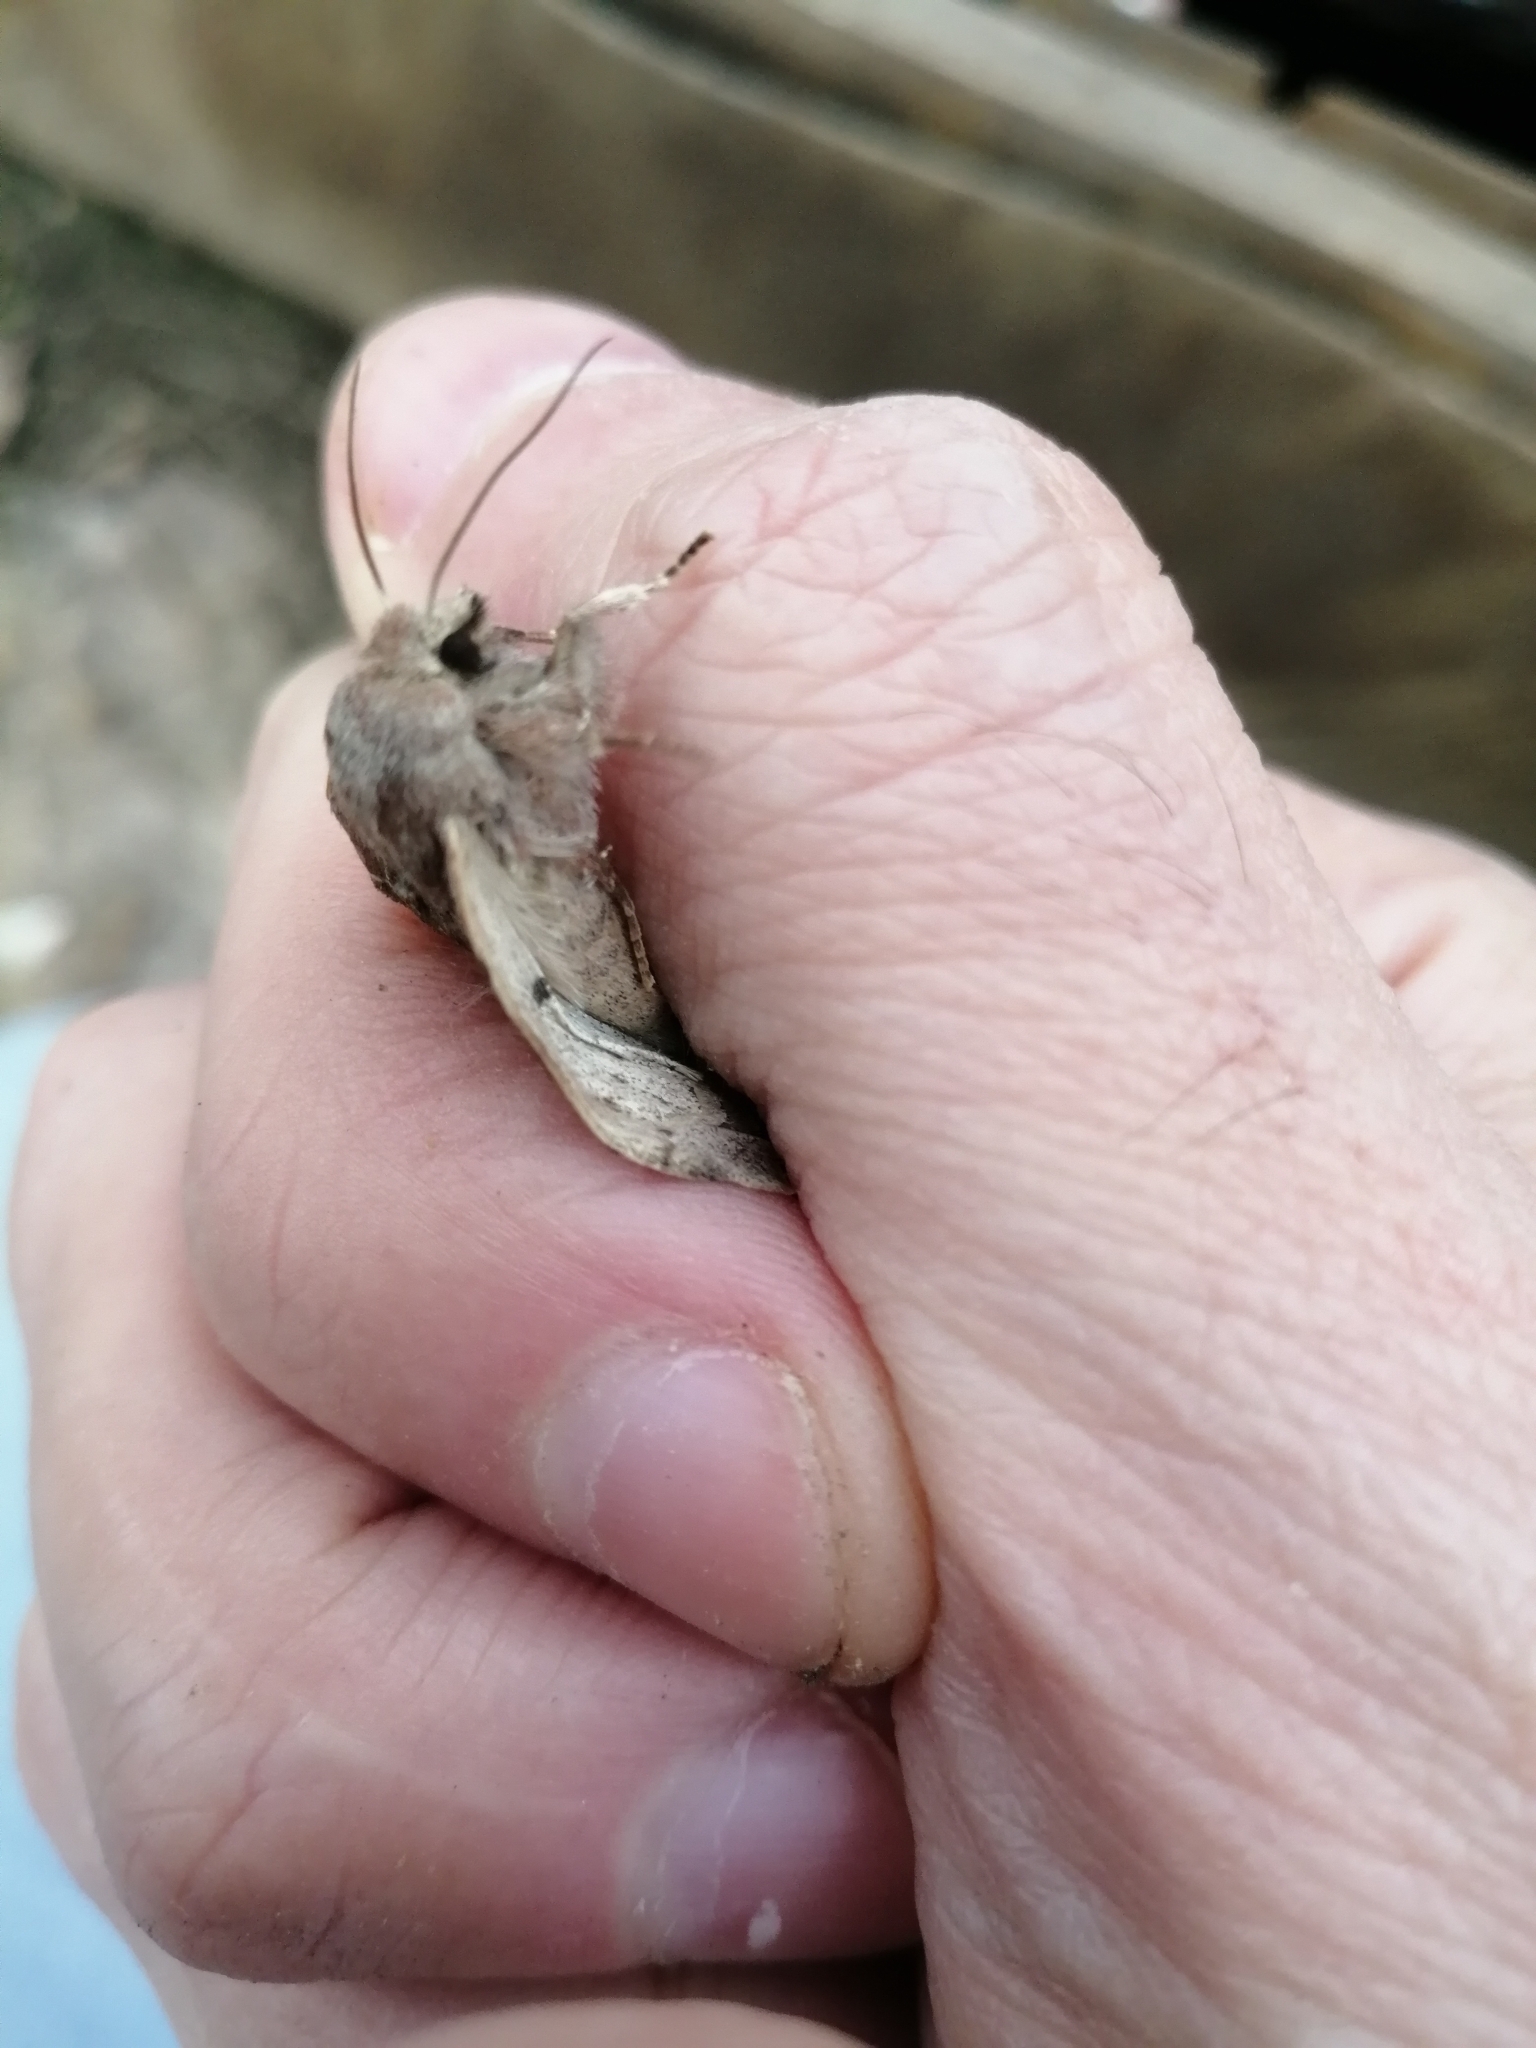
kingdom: Animalia
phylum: Arthropoda
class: Insecta
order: Lepidoptera
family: Noctuidae
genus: Orthosia
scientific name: Orthosia gracilis
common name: Powdered quaker
